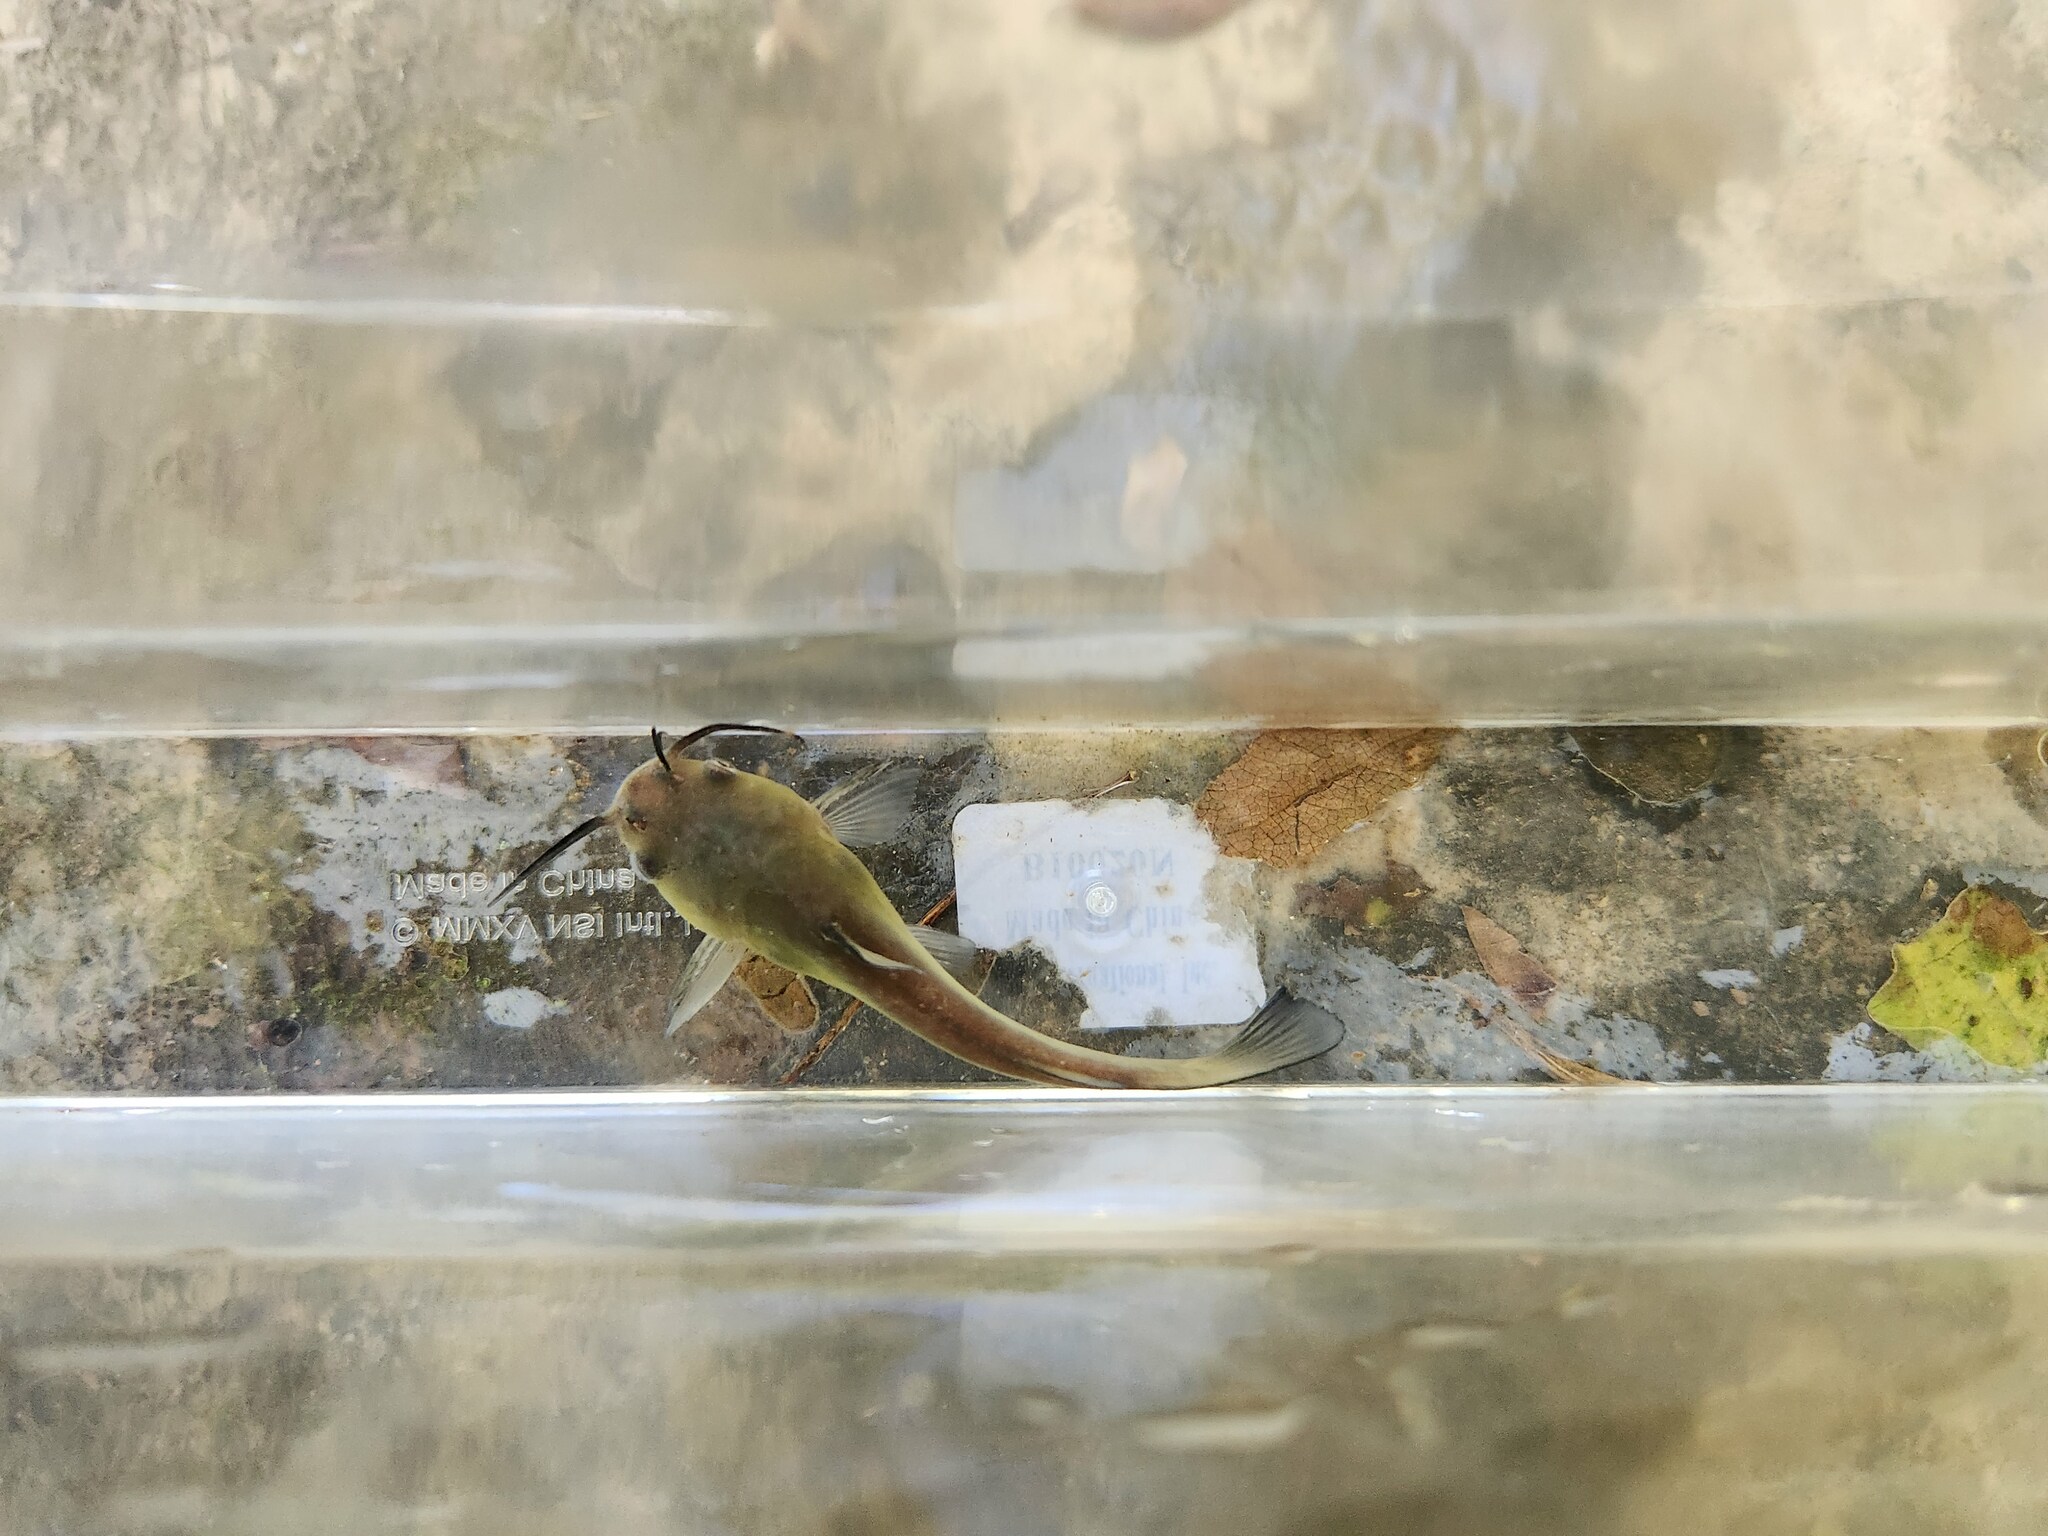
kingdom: Animalia
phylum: Chordata
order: Siluriformes
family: Ictaluridae
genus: Ameiurus
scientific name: Ameiurus melas
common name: Black bullhead
